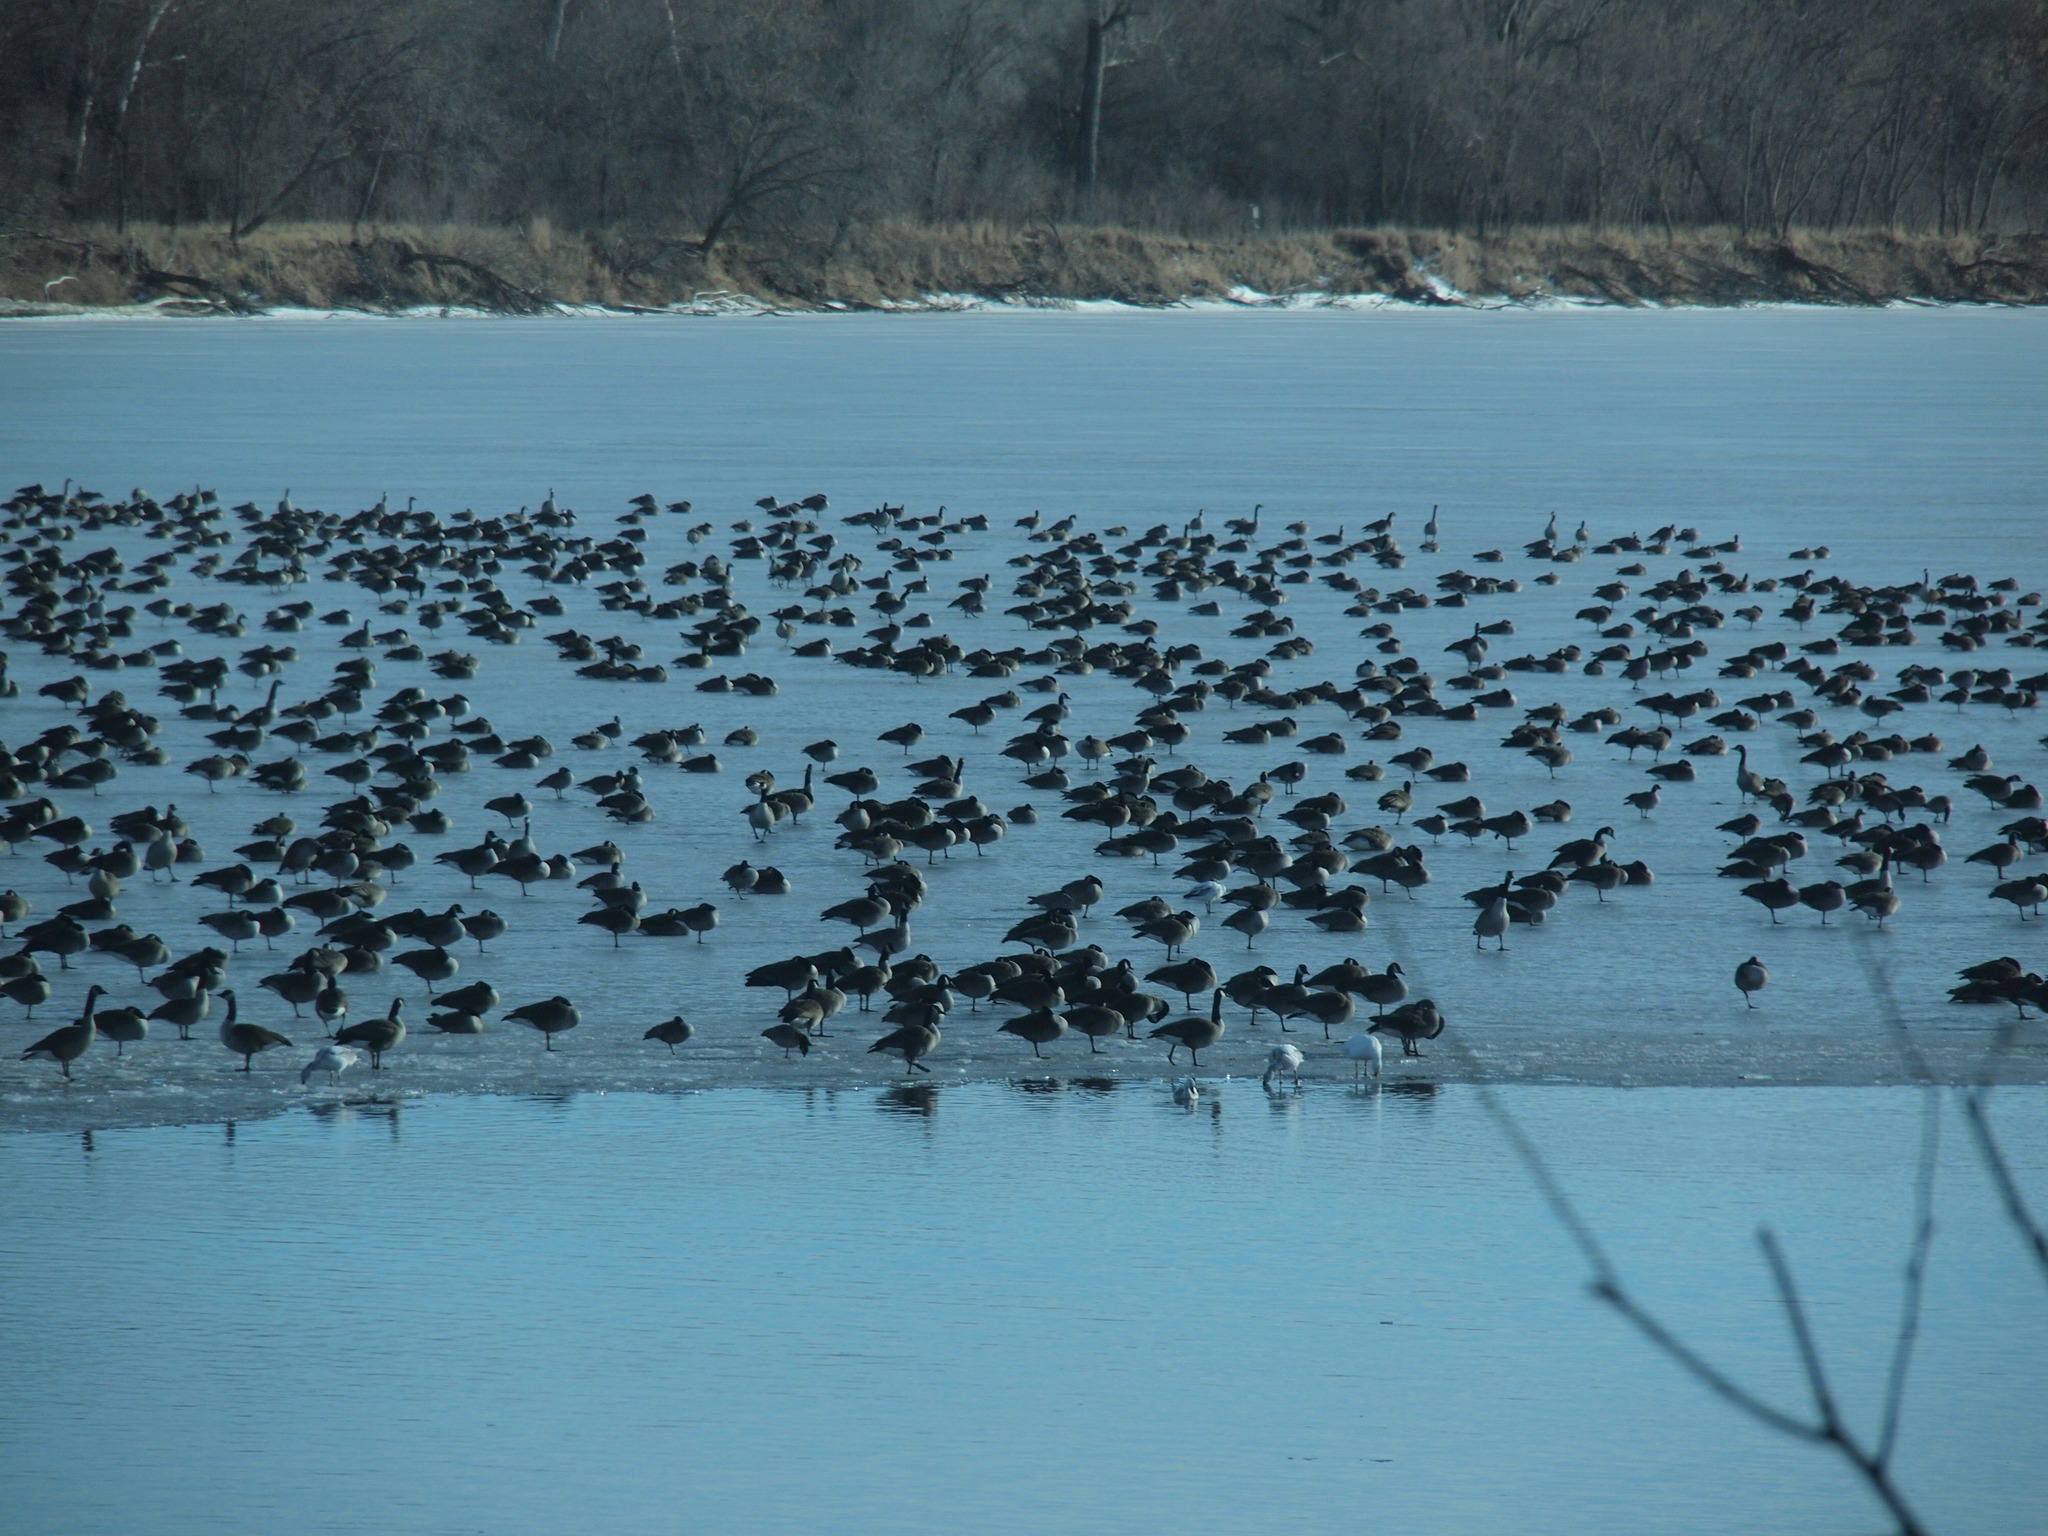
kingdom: Animalia
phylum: Chordata
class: Aves
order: Anseriformes
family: Anatidae
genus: Anser
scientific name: Anser caerulescens
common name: Snow goose
